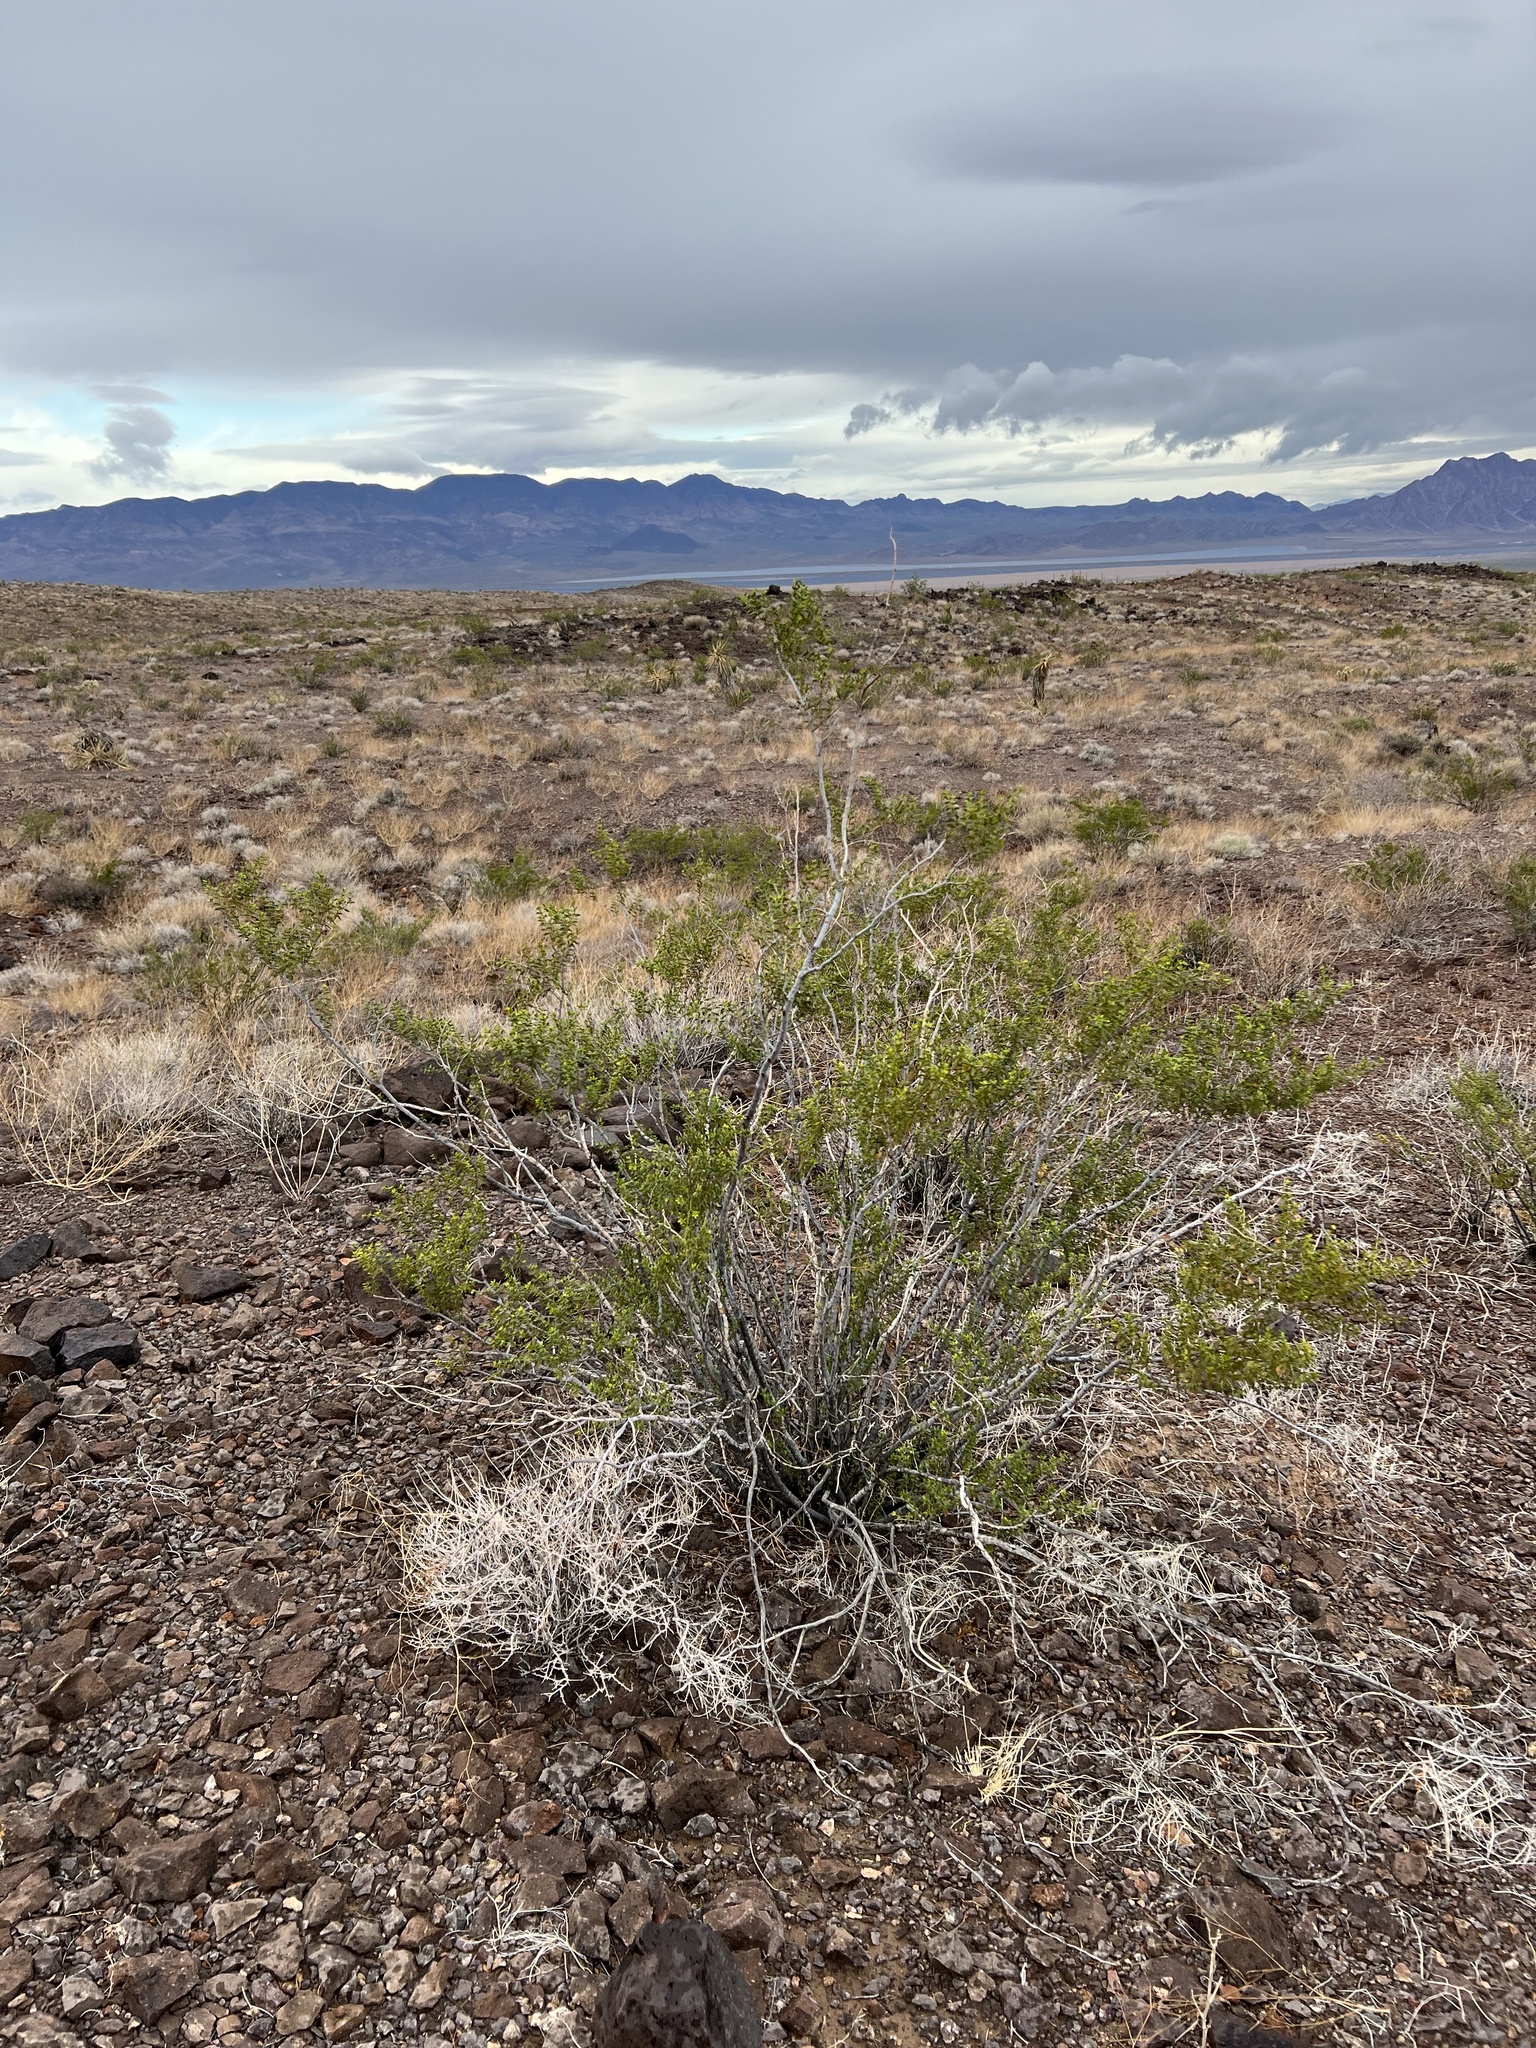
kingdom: Plantae
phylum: Tracheophyta
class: Magnoliopsida
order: Zygophyllales
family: Zygophyllaceae
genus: Larrea
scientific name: Larrea tridentata
